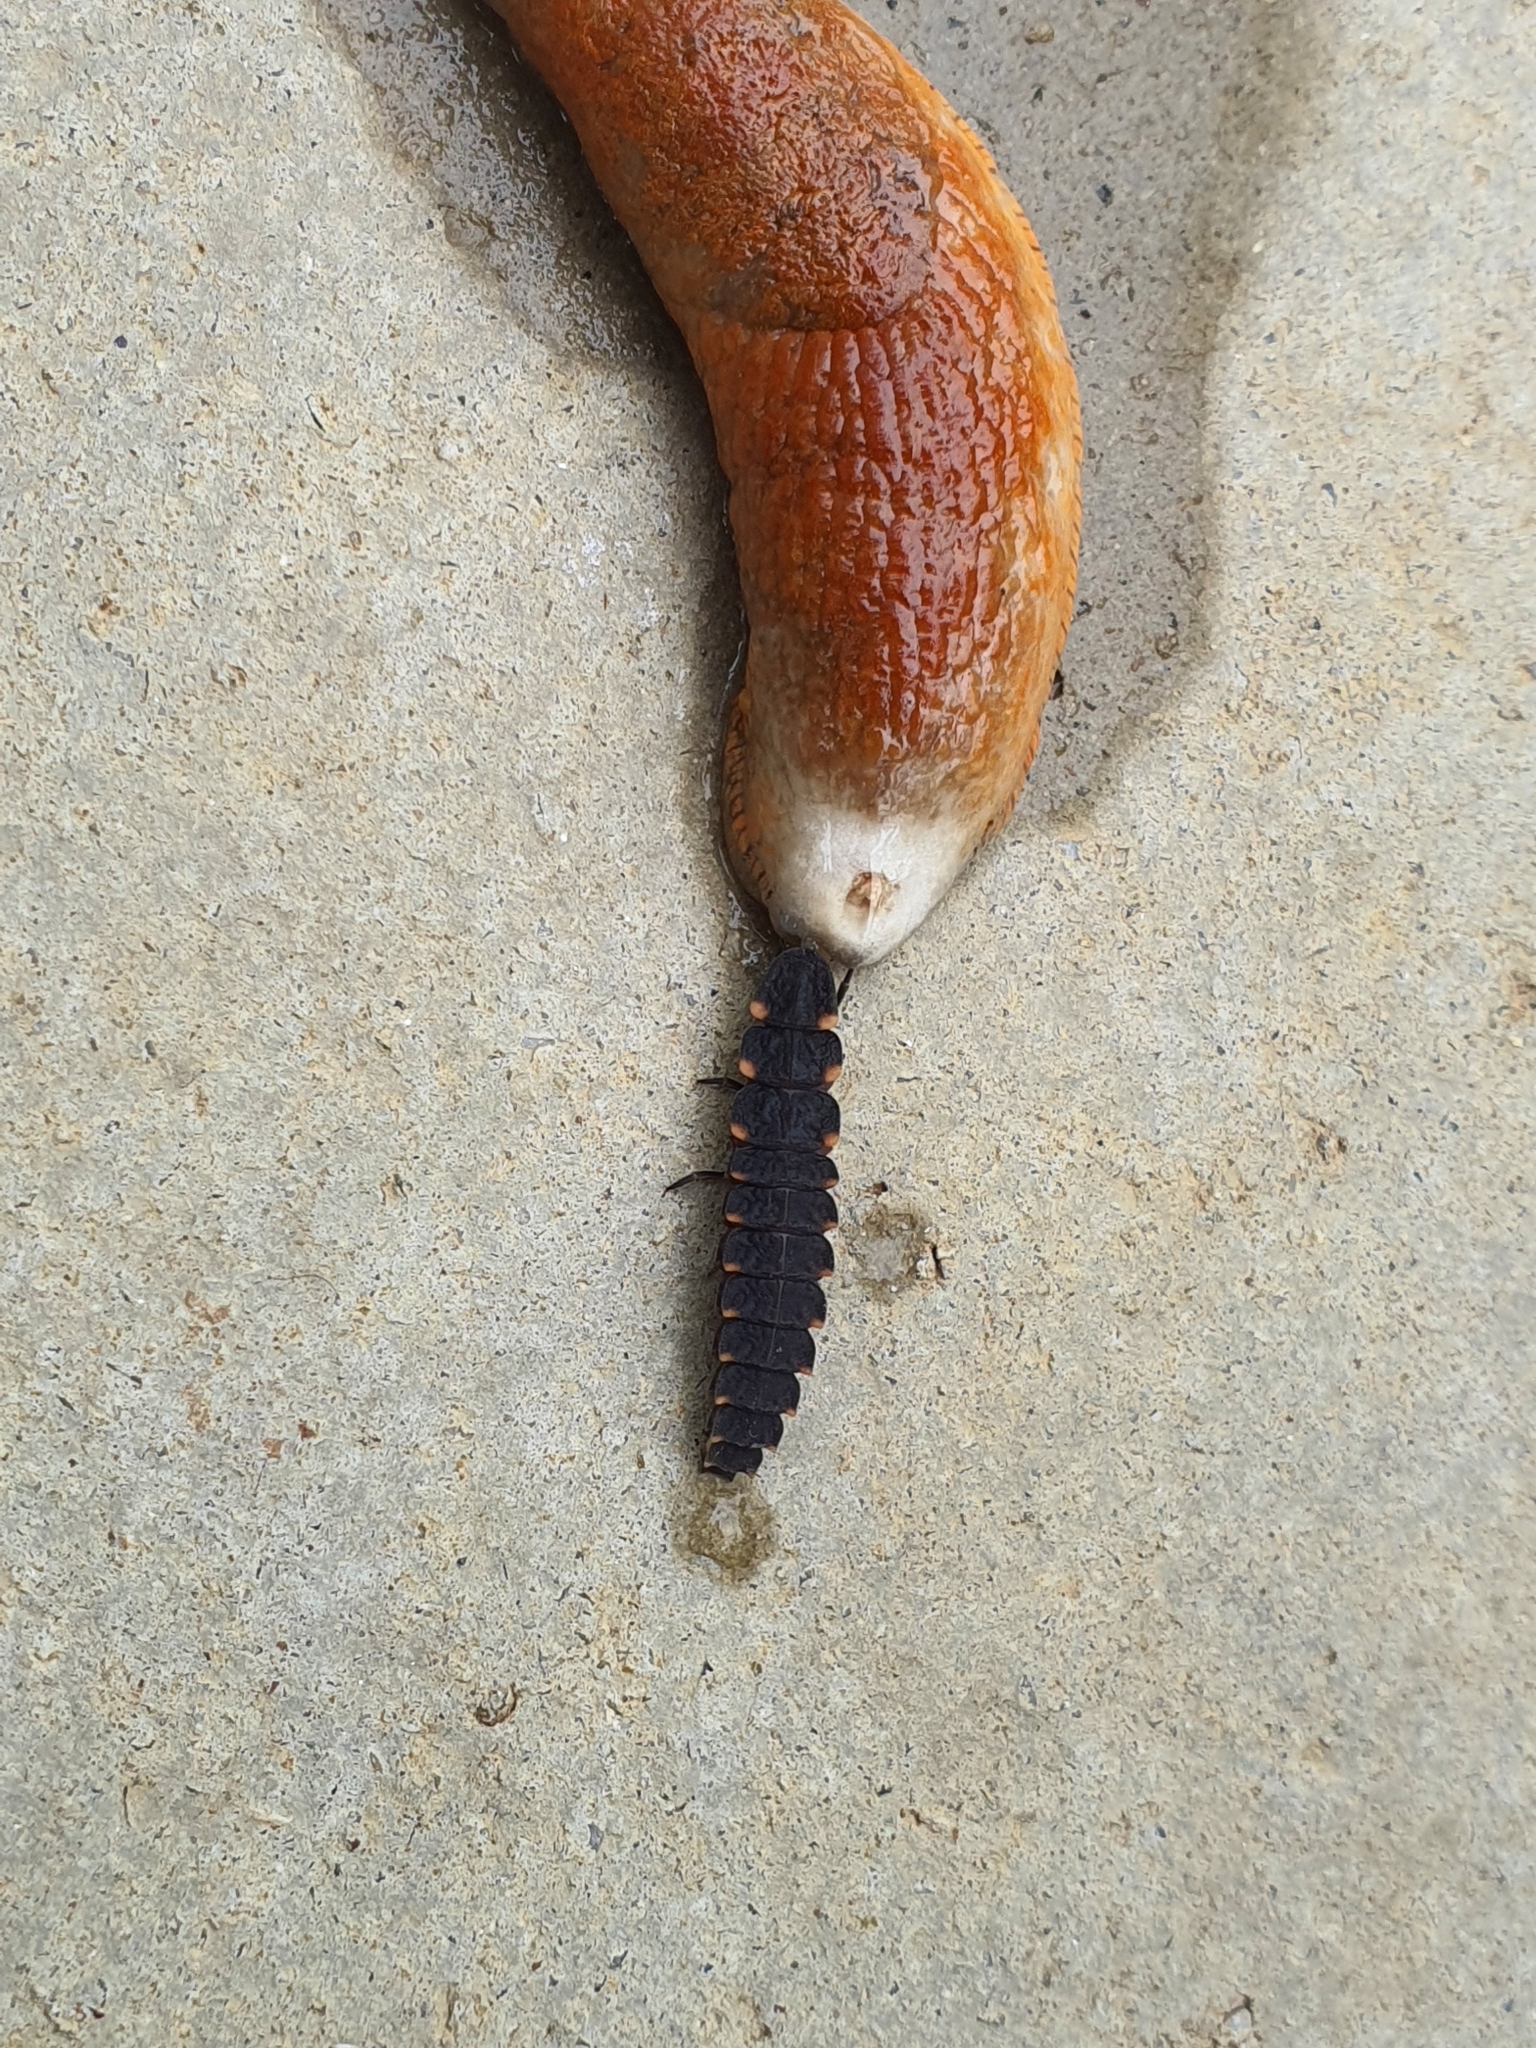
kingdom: Animalia
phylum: Arthropoda
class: Insecta
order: Coleoptera
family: Lampyridae
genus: Lampyris
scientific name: Lampyris noctiluca
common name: Glow-worm
